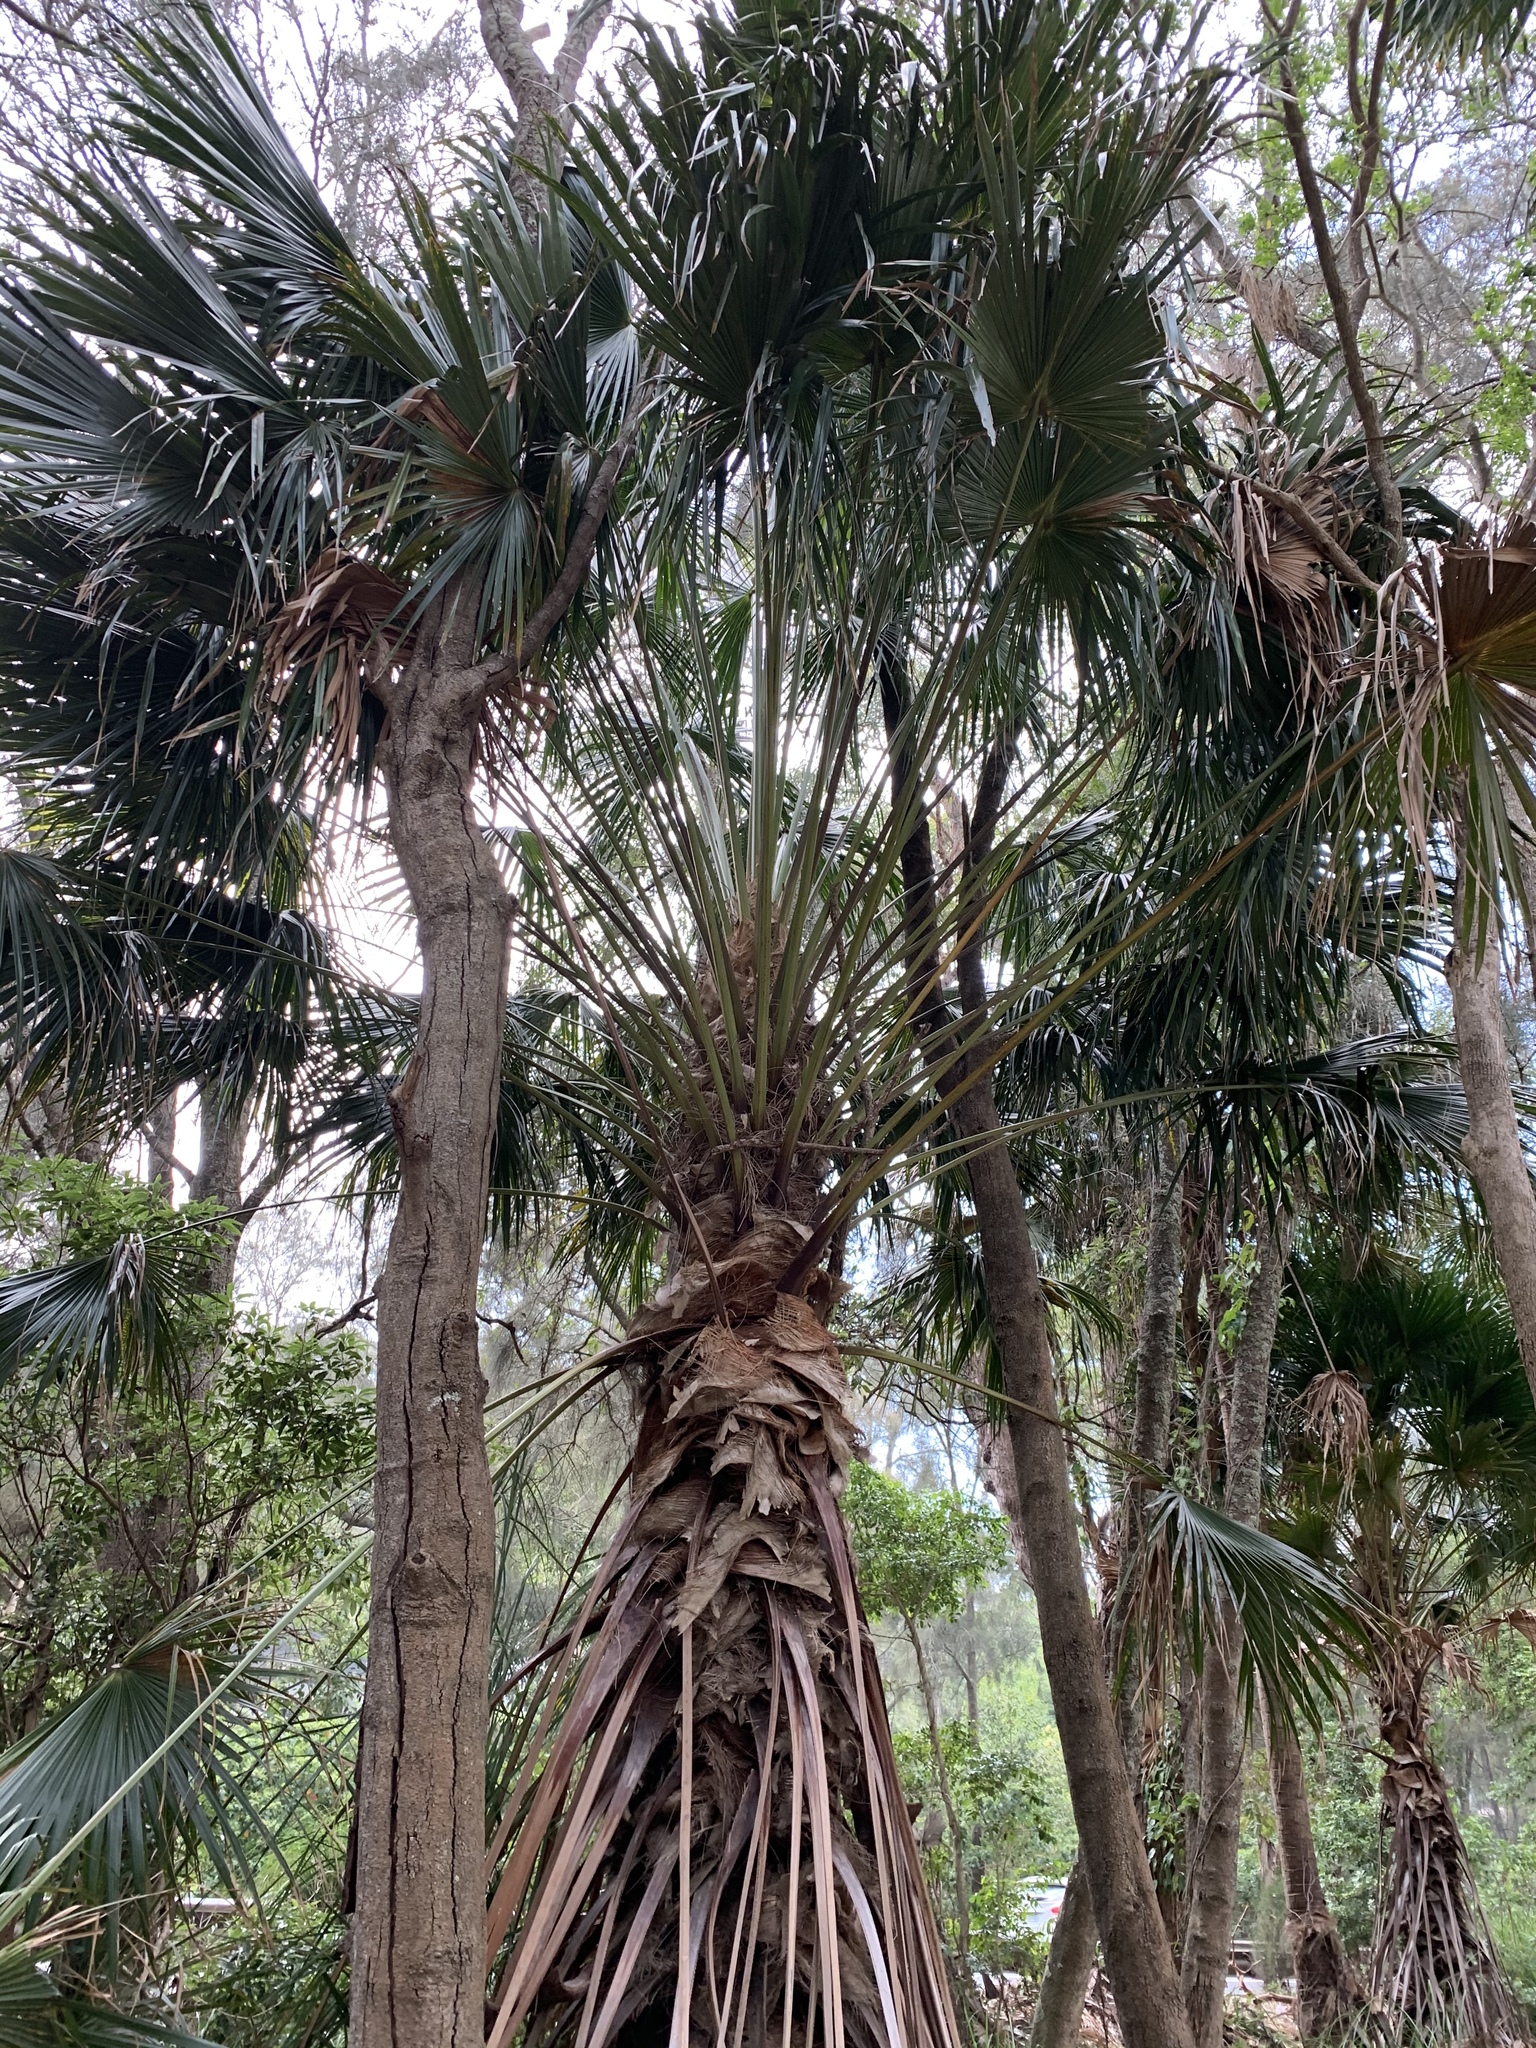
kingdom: Plantae
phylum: Tracheophyta
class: Liliopsida
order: Arecales
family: Arecaceae
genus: Livistona
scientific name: Livistona australis
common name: Cabbage fan palm
